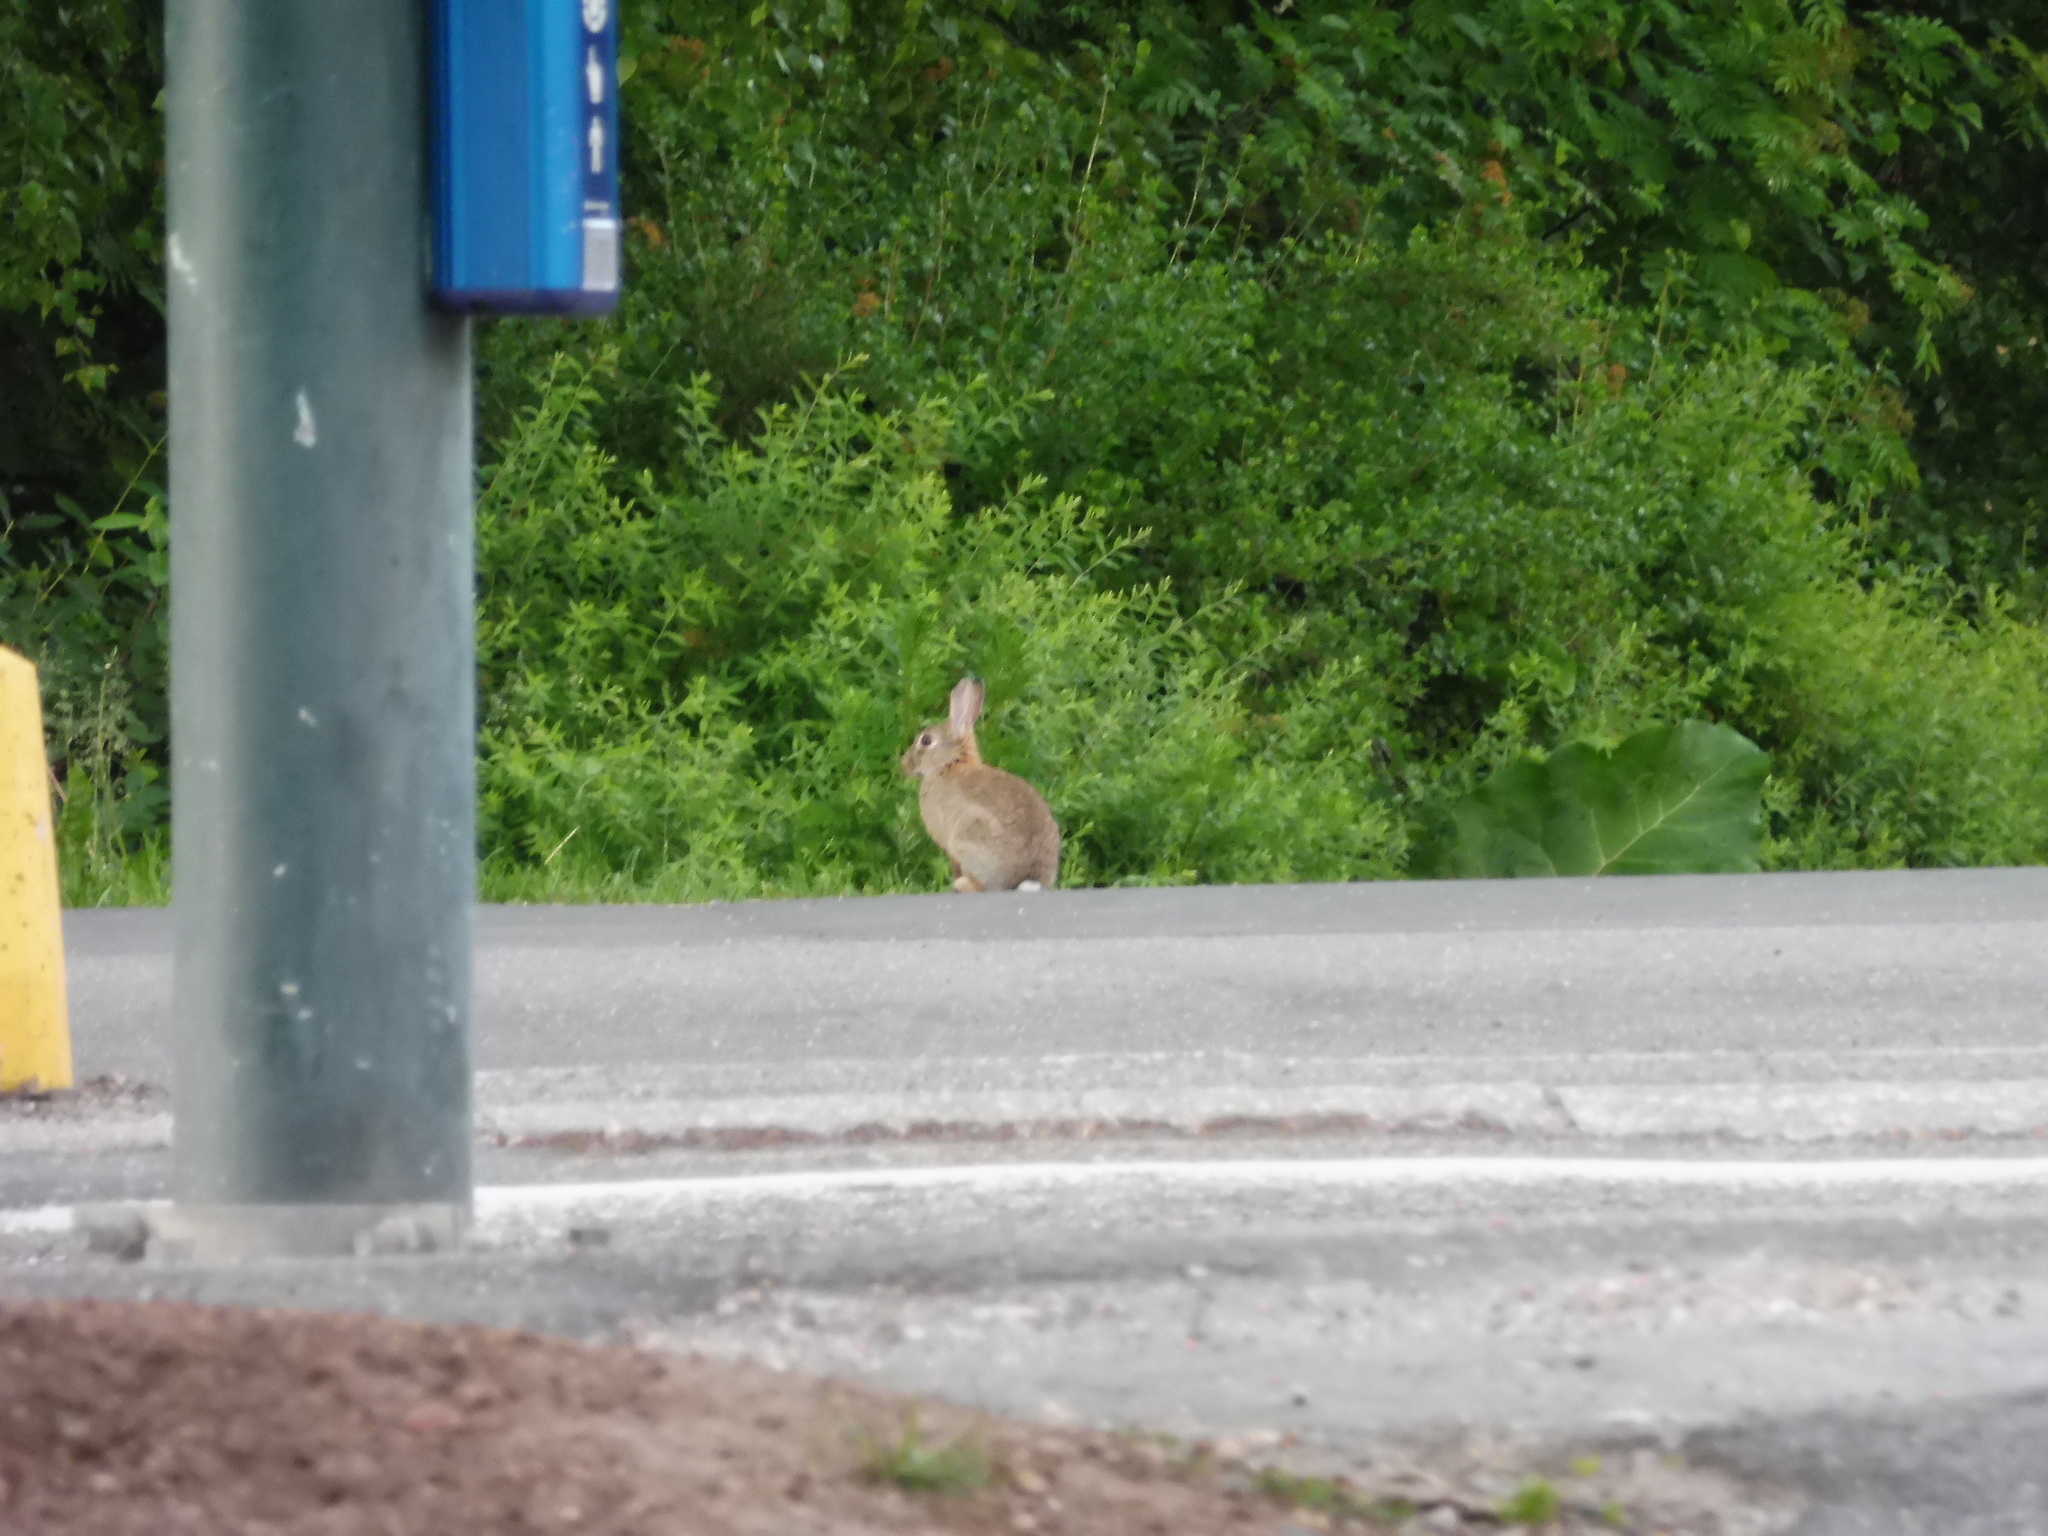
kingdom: Animalia
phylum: Chordata
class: Mammalia
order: Lagomorpha
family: Leporidae
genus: Oryctolagus
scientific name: Oryctolagus cuniculus
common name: European rabbit
